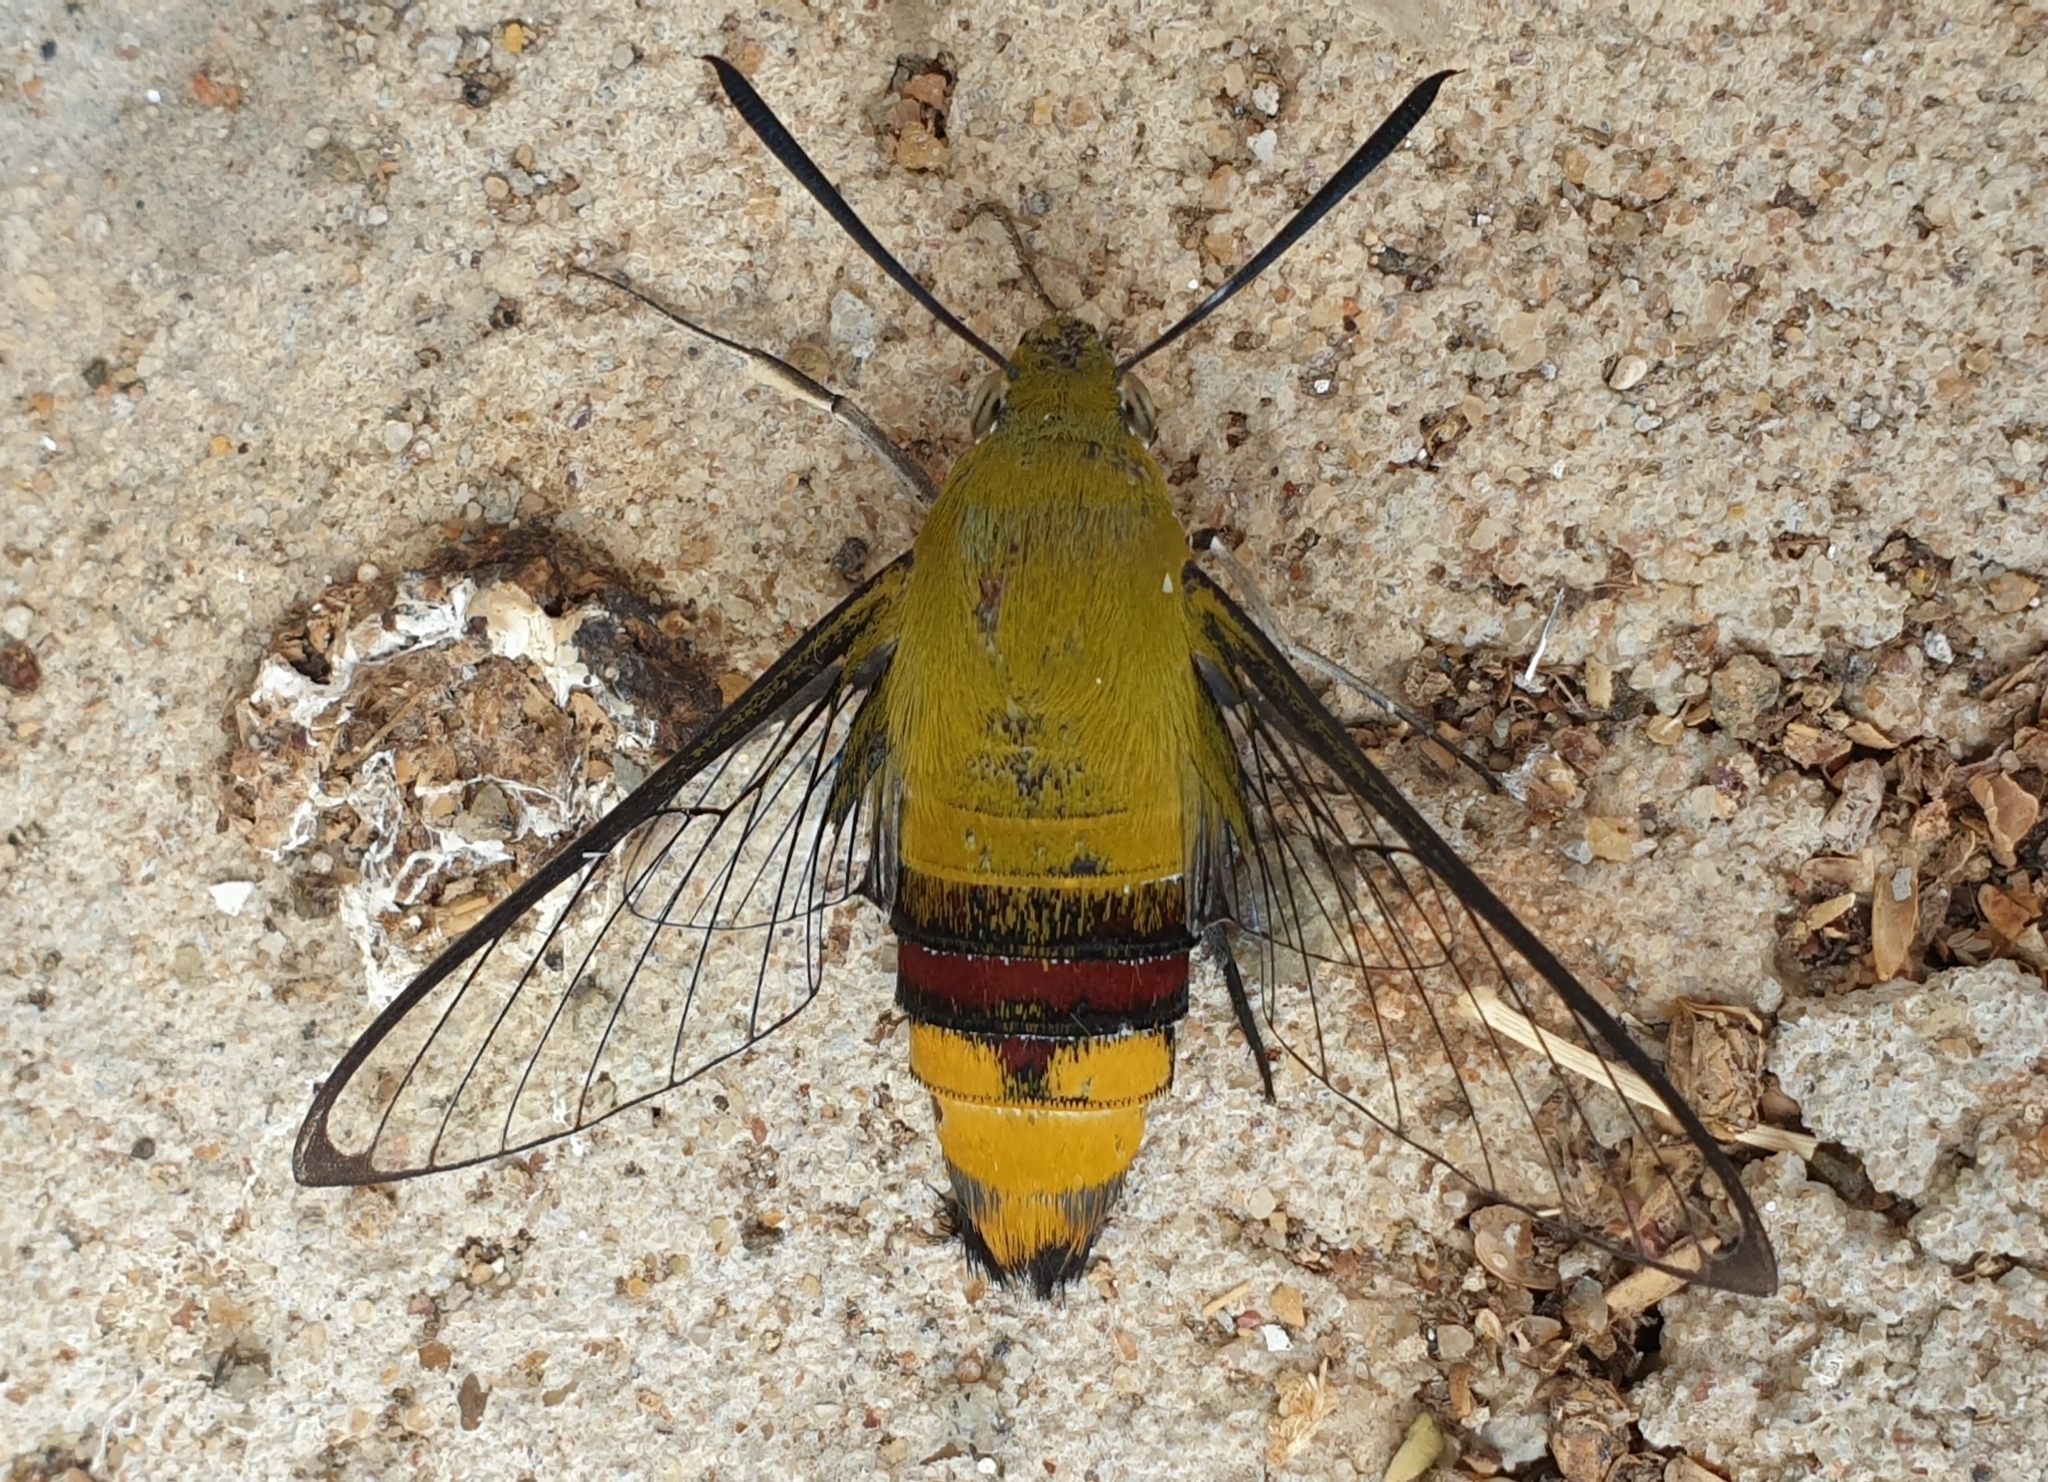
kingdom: Animalia
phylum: Arthropoda
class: Insecta
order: Lepidoptera
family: Sphingidae
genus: Cephonodes
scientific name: Cephonodes hylas
